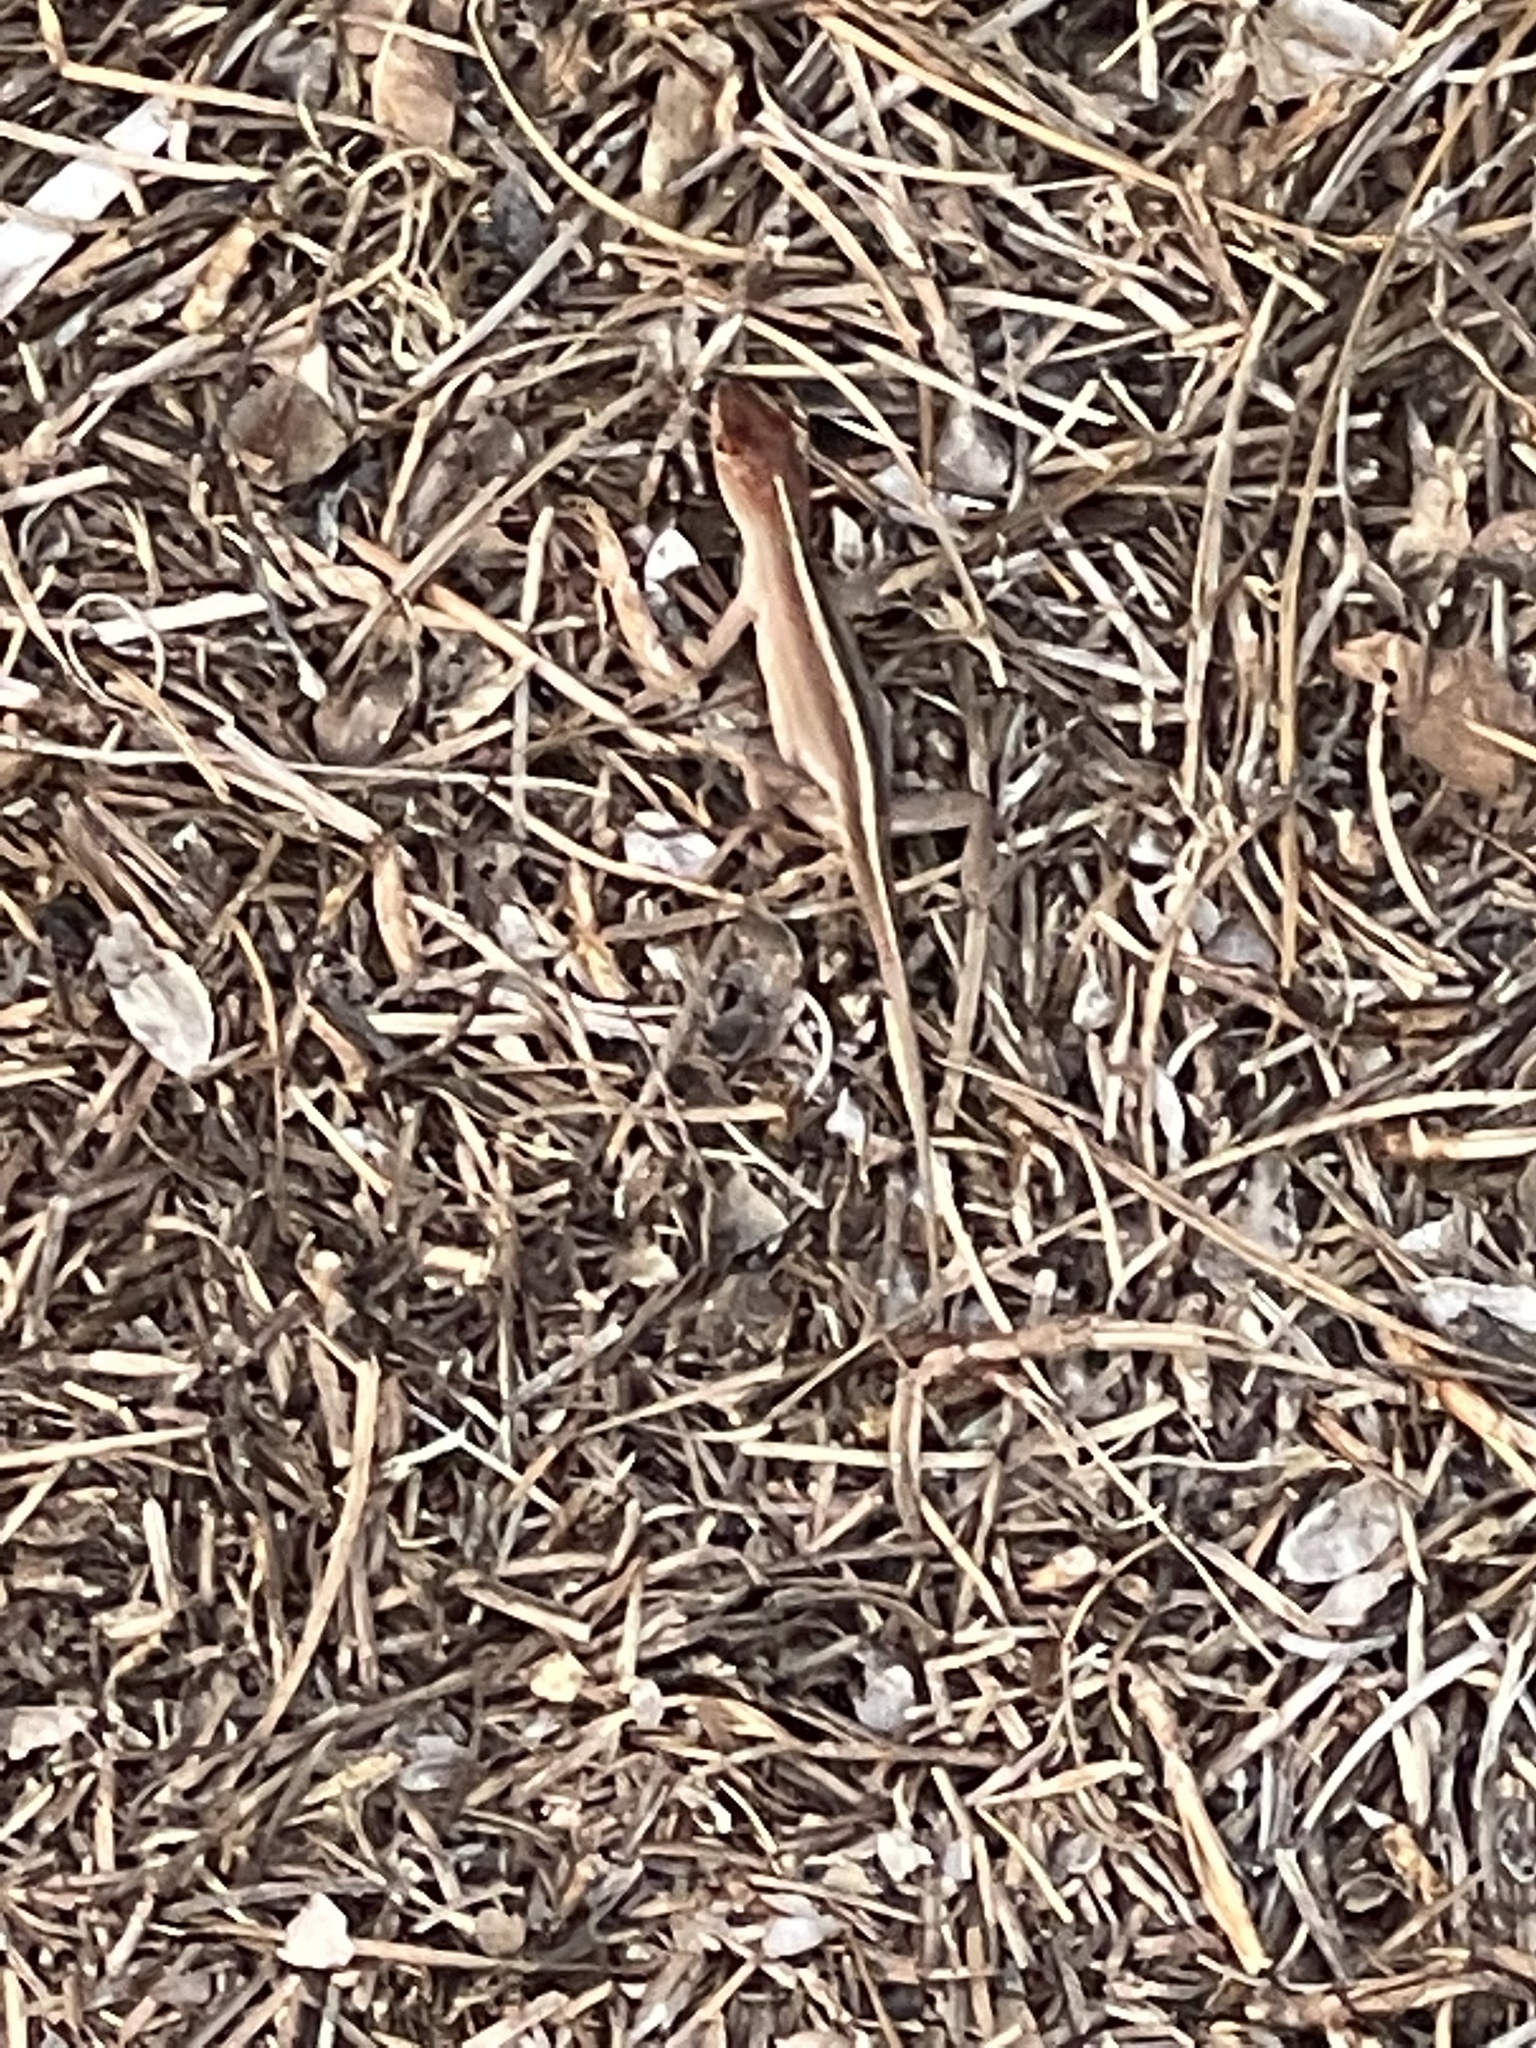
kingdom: Animalia
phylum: Chordata
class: Squamata
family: Dactyloidae
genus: Anolis
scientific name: Anolis sagrei
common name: Brown anole
